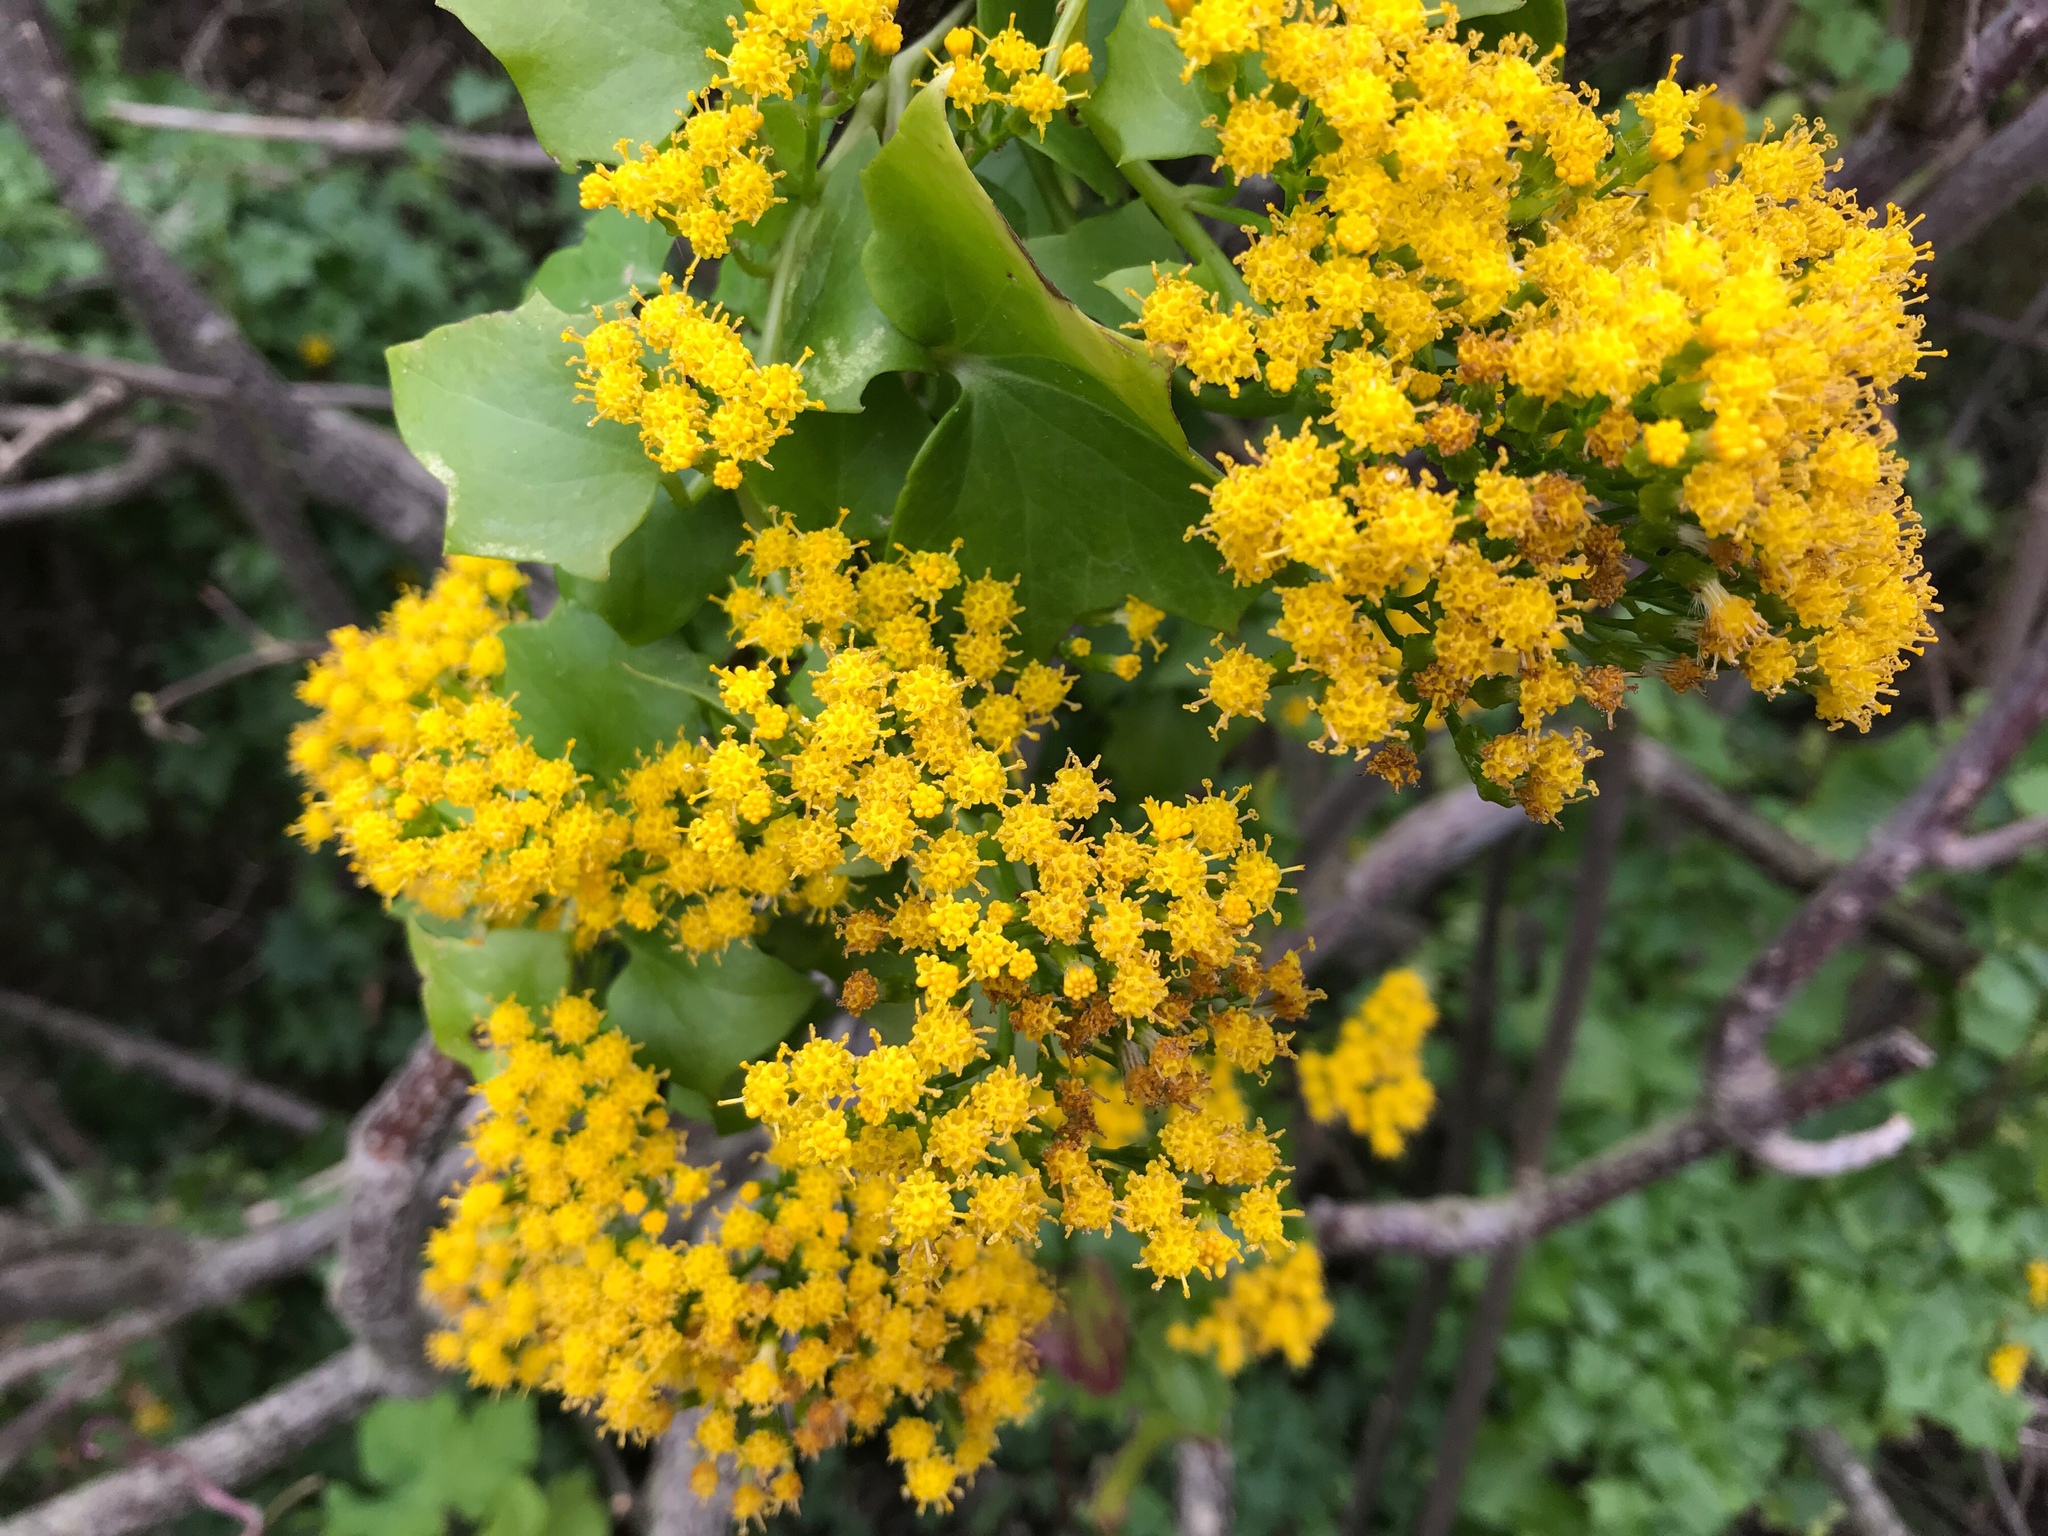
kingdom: Plantae
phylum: Tracheophyta
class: Magnoliopsida
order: Asterales
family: Asteraceae
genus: Delairea
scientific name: Delairea odorata
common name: Cape-ivy
